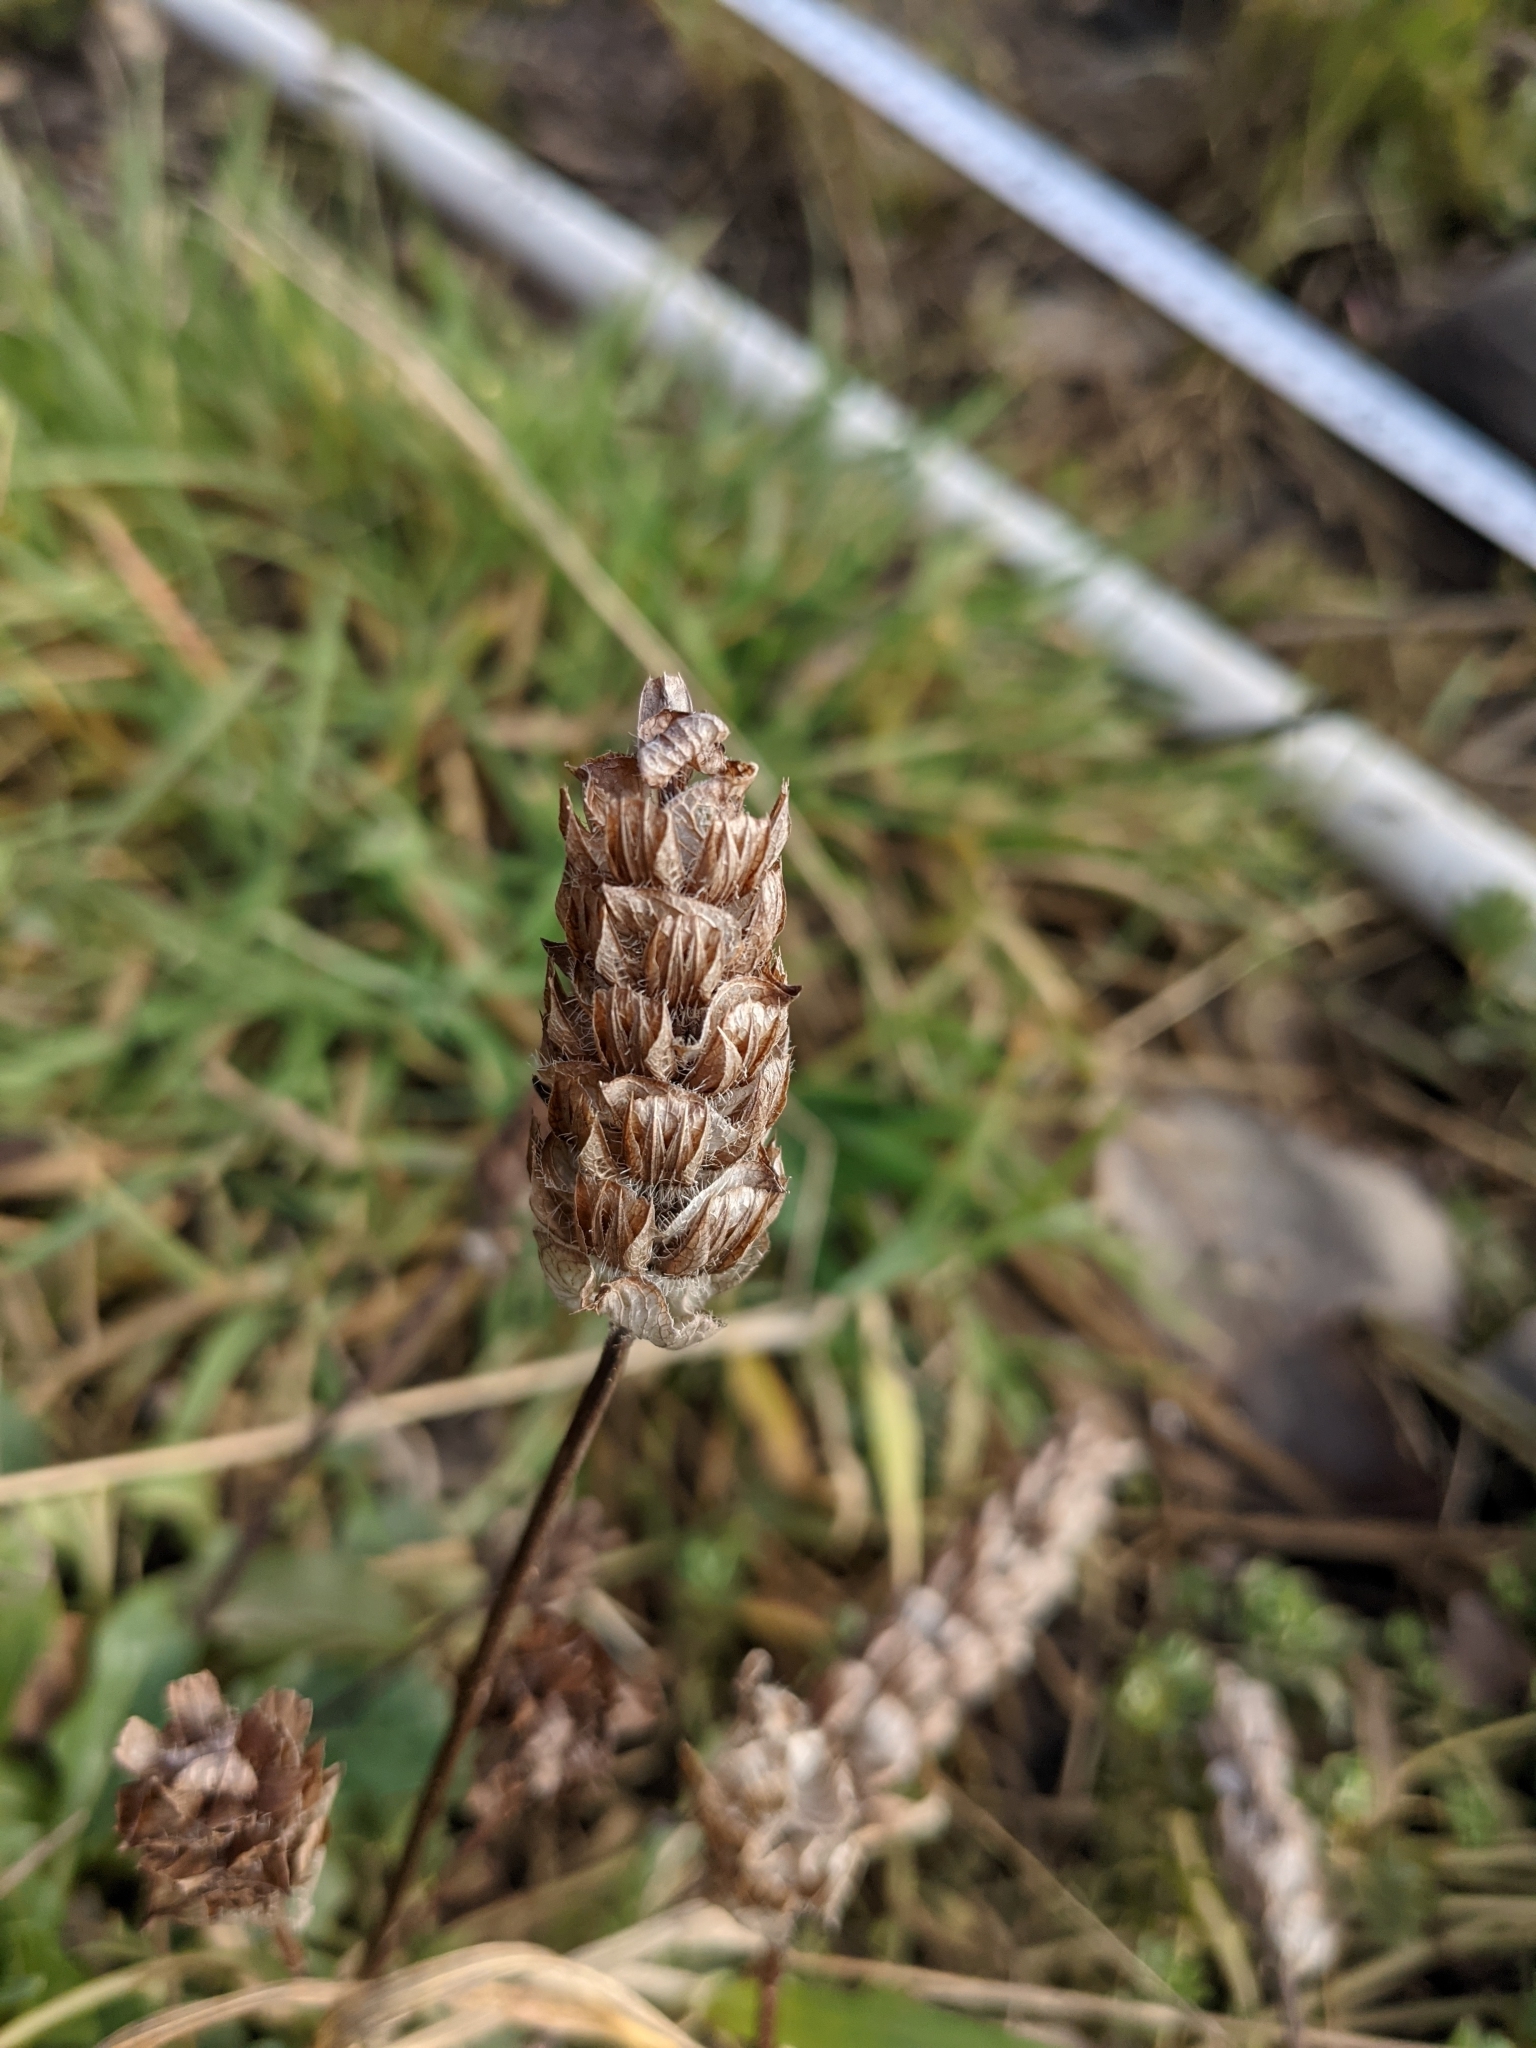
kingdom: Plantae
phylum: Tracheophyta
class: Magnoliopsida
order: Lamiales
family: Lamiaceae
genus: Prunella
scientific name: Prunella vulgaris
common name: Heal-all
